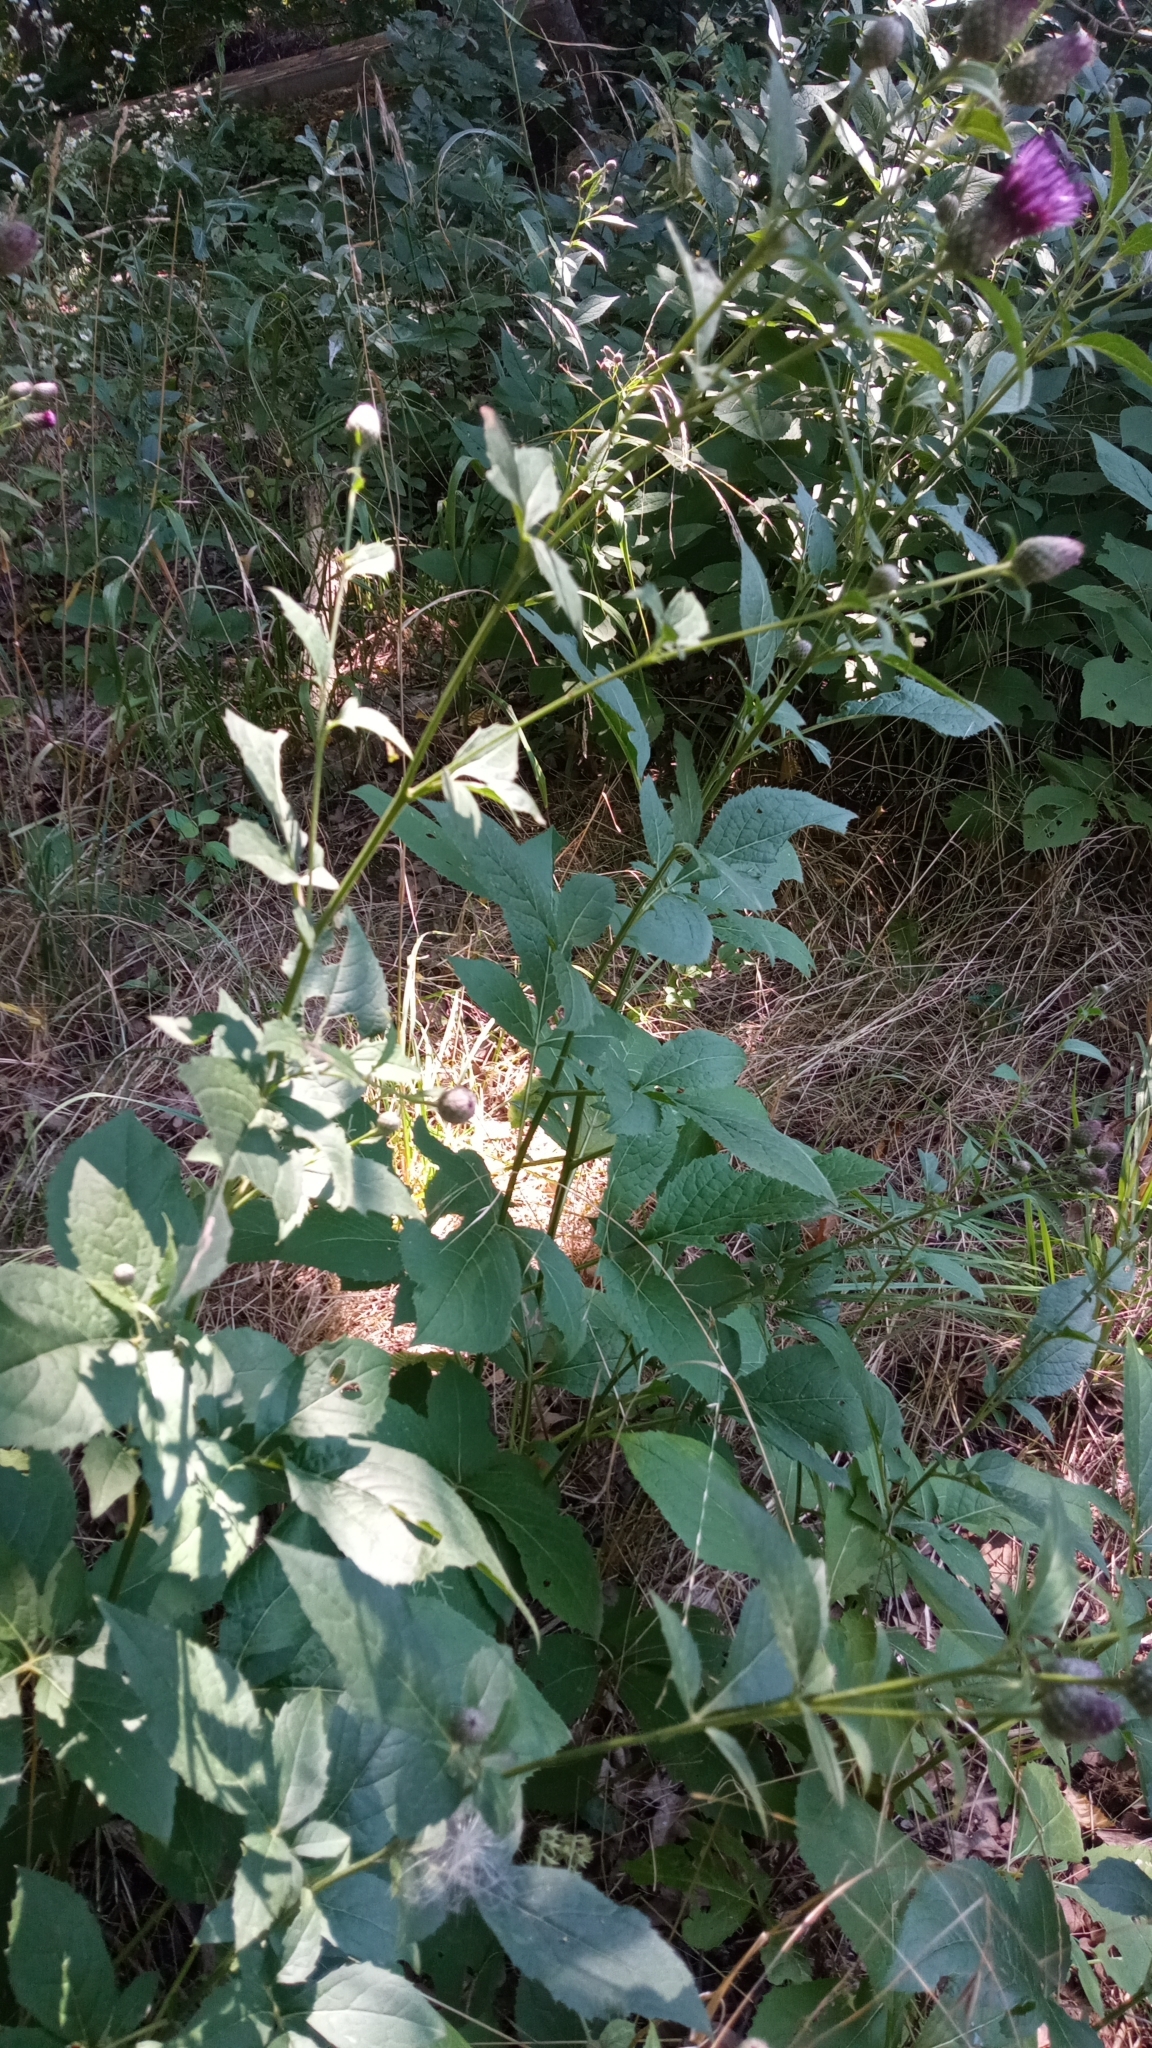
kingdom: Plantae
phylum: Tracheophyta
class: Magnoliopsida
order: Asterales
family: Asteraceae
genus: Klasea
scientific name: Klasea quinquefolia
